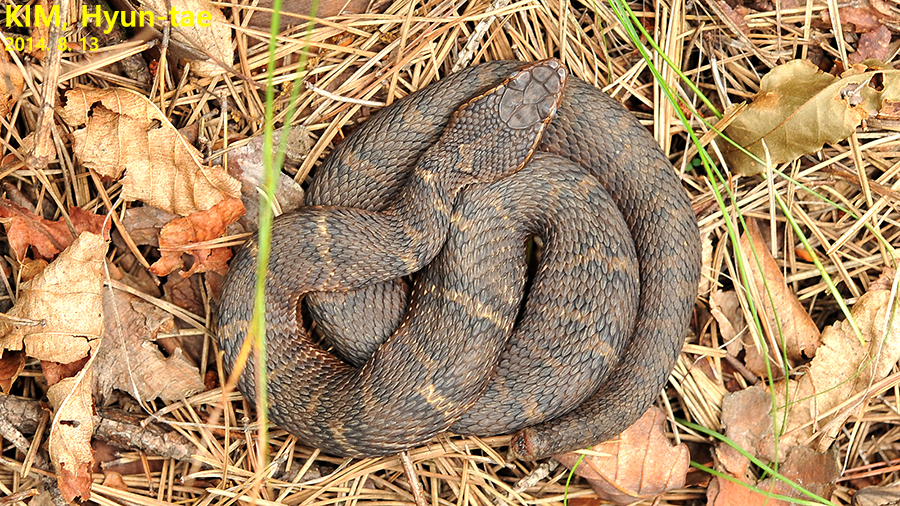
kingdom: Animalia
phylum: Chordata
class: Squamata
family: Viperidae
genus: Gloydius
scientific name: Gloydius ussuriensis
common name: Ussuri mamushi
